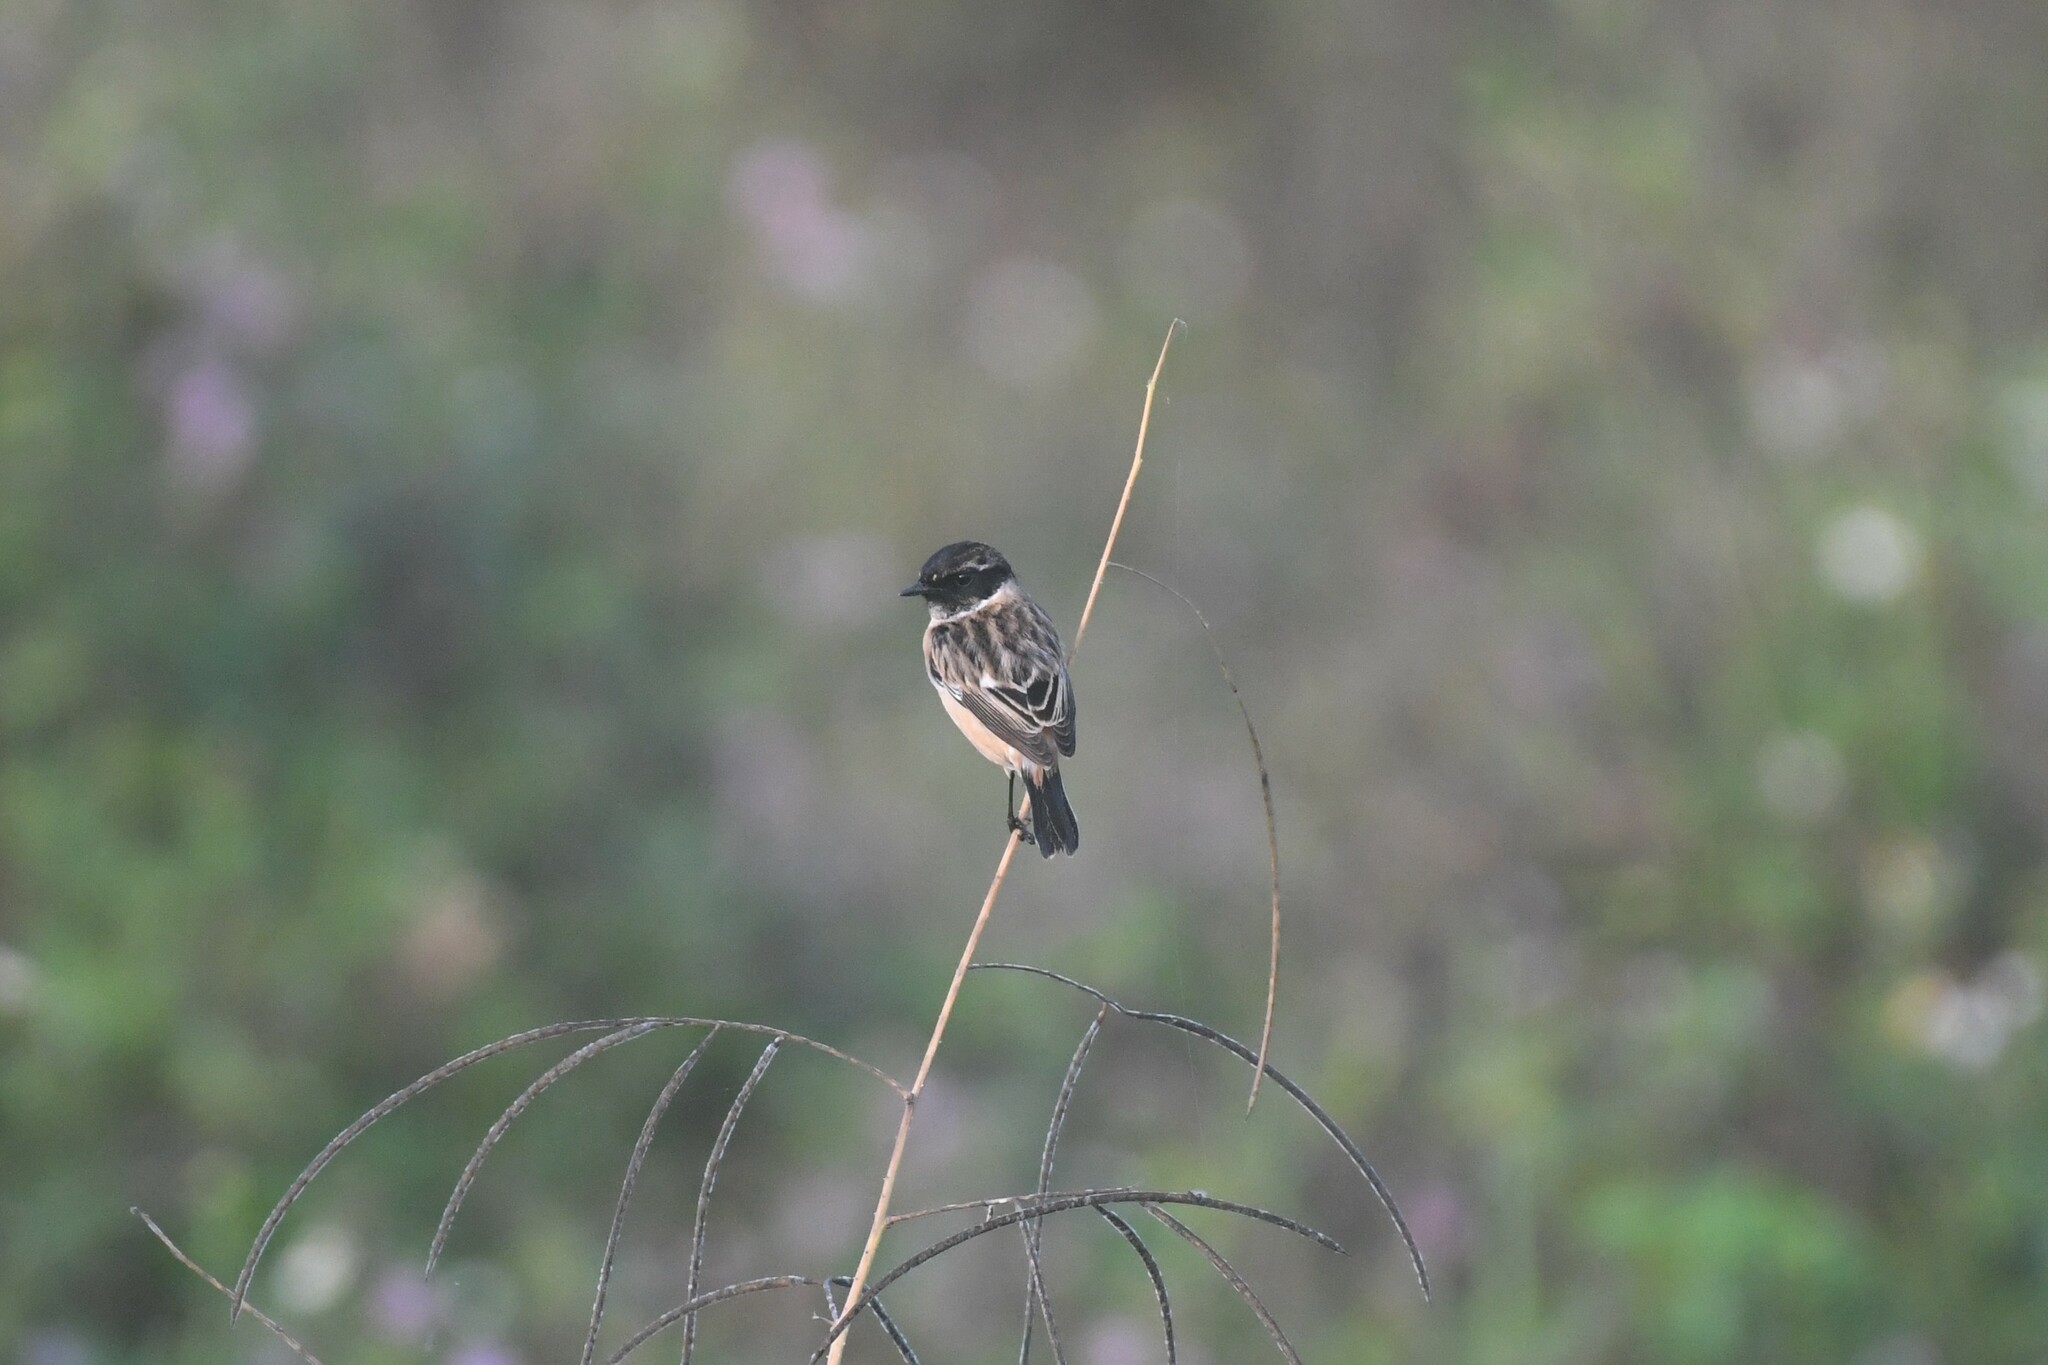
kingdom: Animalia
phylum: Chordata
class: Aves
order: Passeriformes
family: Muscicapidae
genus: Saxicola
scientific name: Saxicola stejnegeri
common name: Stejneger's stonechat
